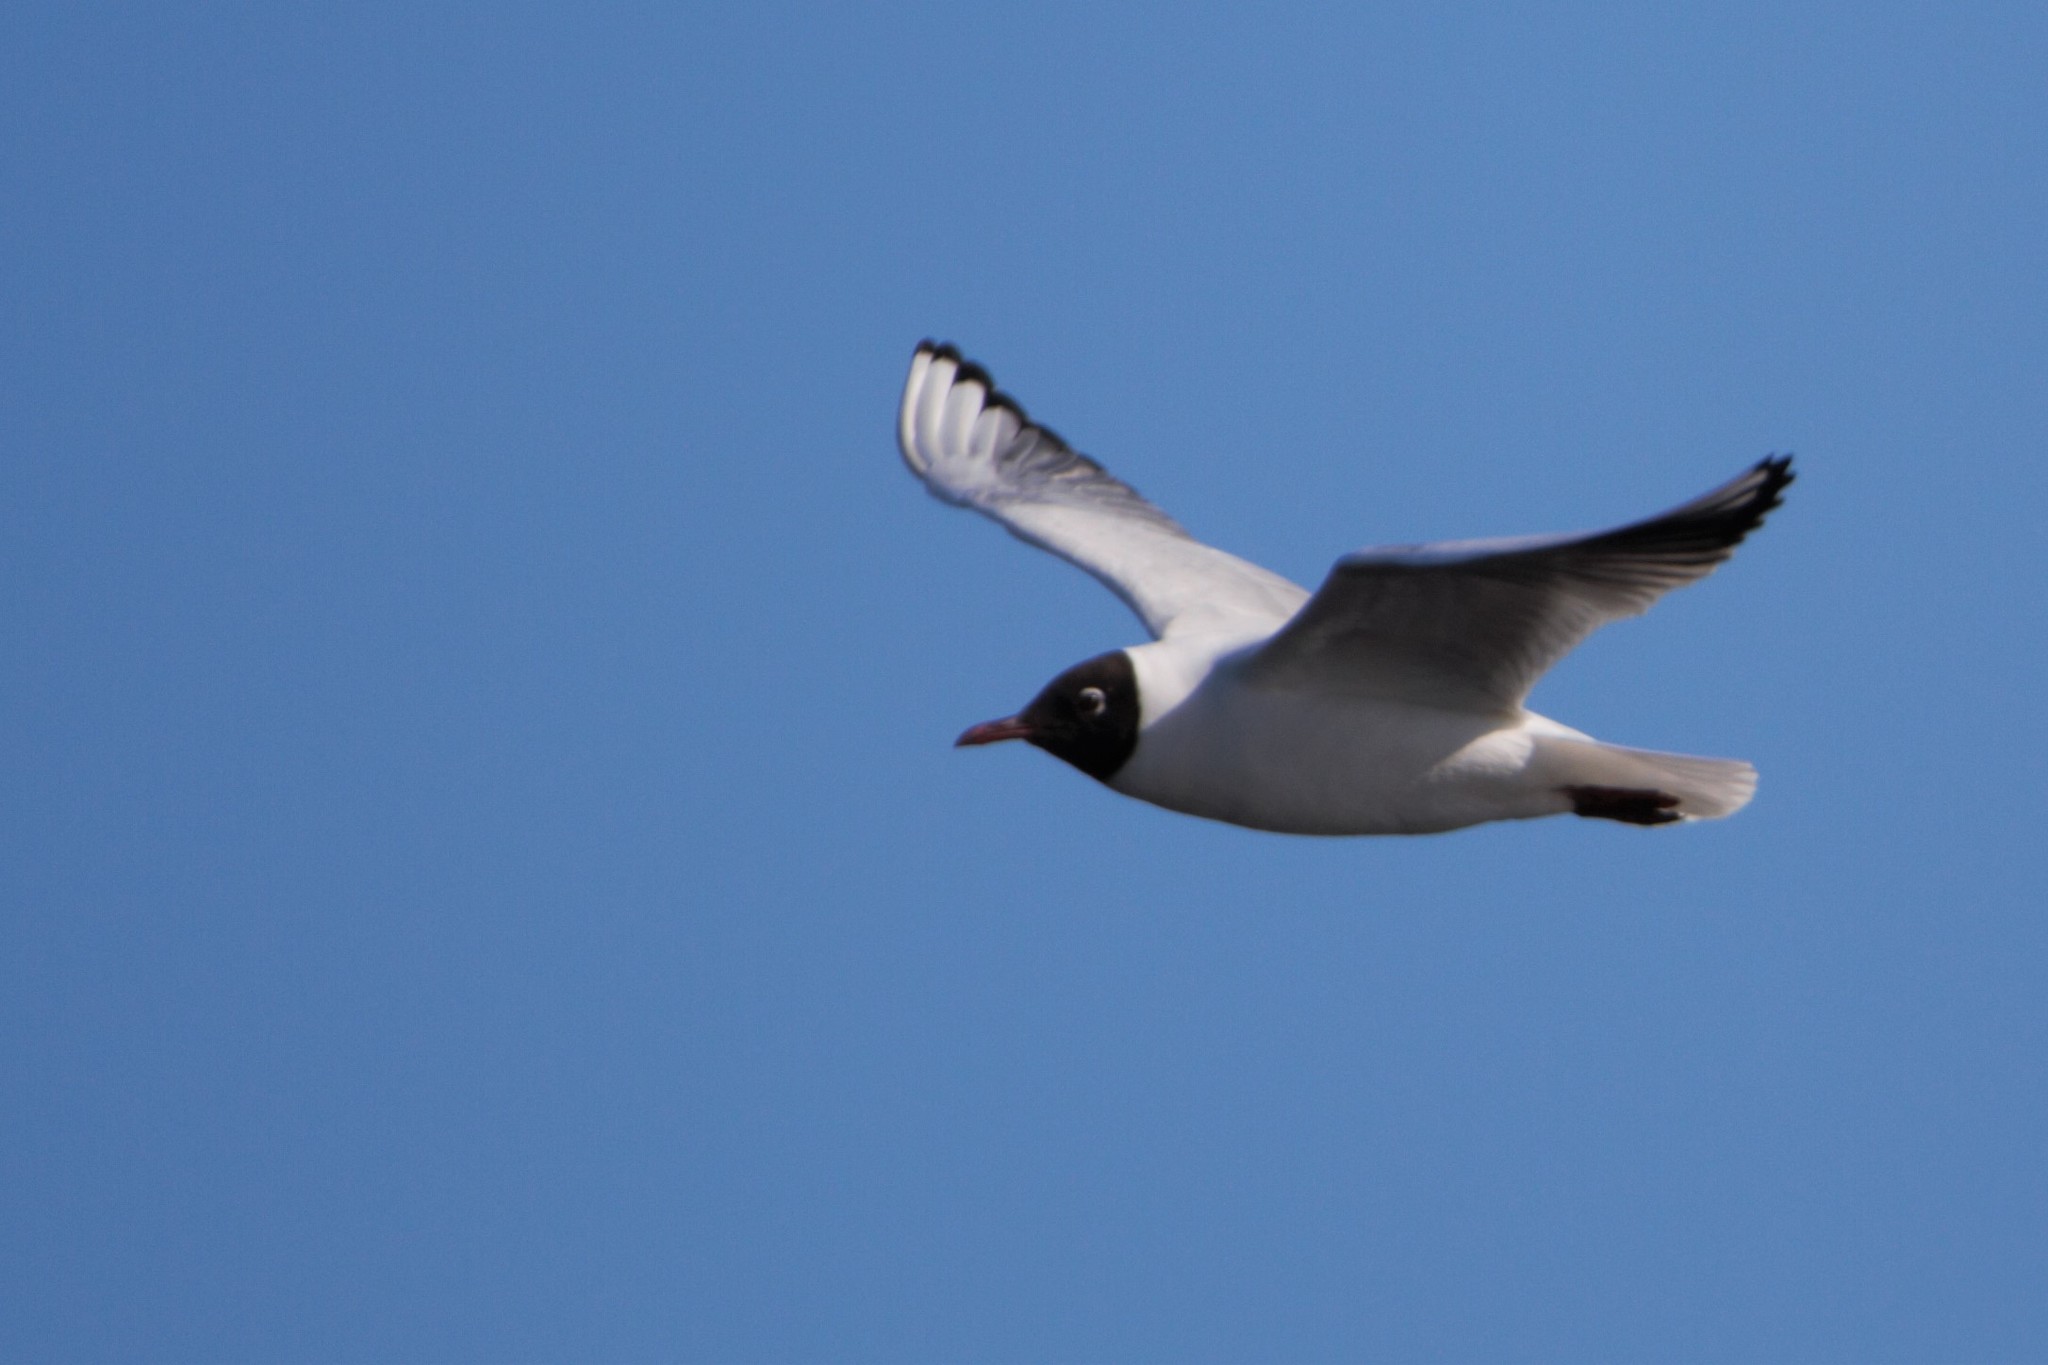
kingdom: Animalia
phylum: Chordata
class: Aves
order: Charadriiformes
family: Laridae
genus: Chroicocephalus
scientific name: Chroicocephalus ridibundus
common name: Black-headed gull
